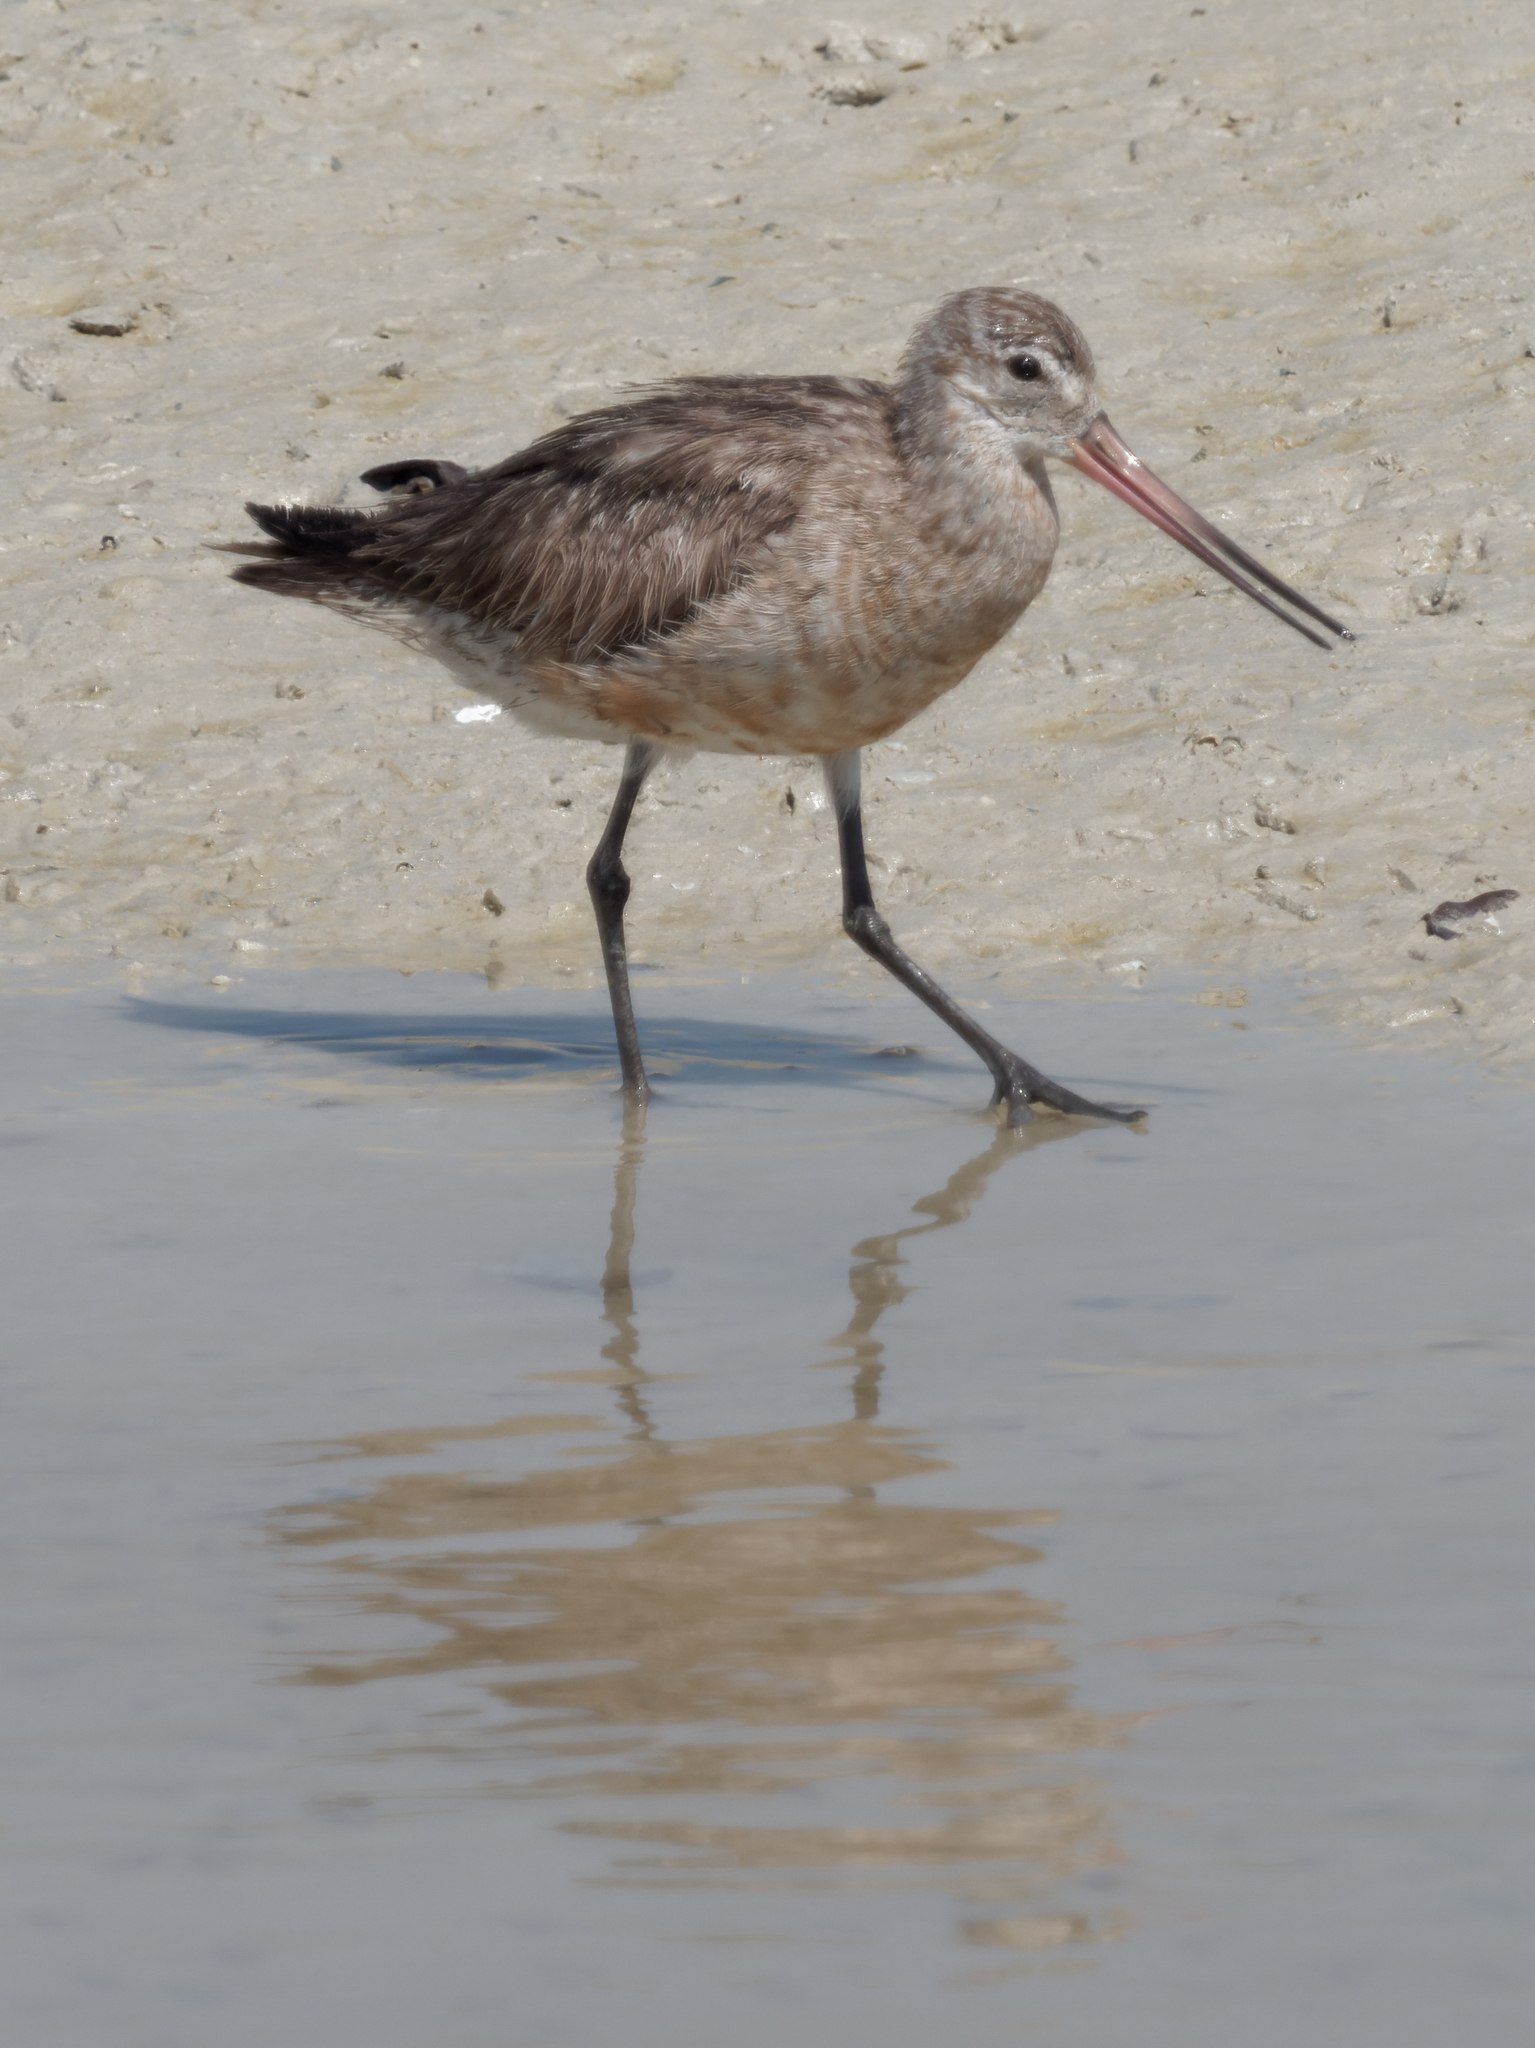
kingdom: Animalia
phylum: Chordata
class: Aves
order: Charadriiformes
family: Scolopacidae
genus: Limosa
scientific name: Limosa lapponica
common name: Bar-tailed godwit
